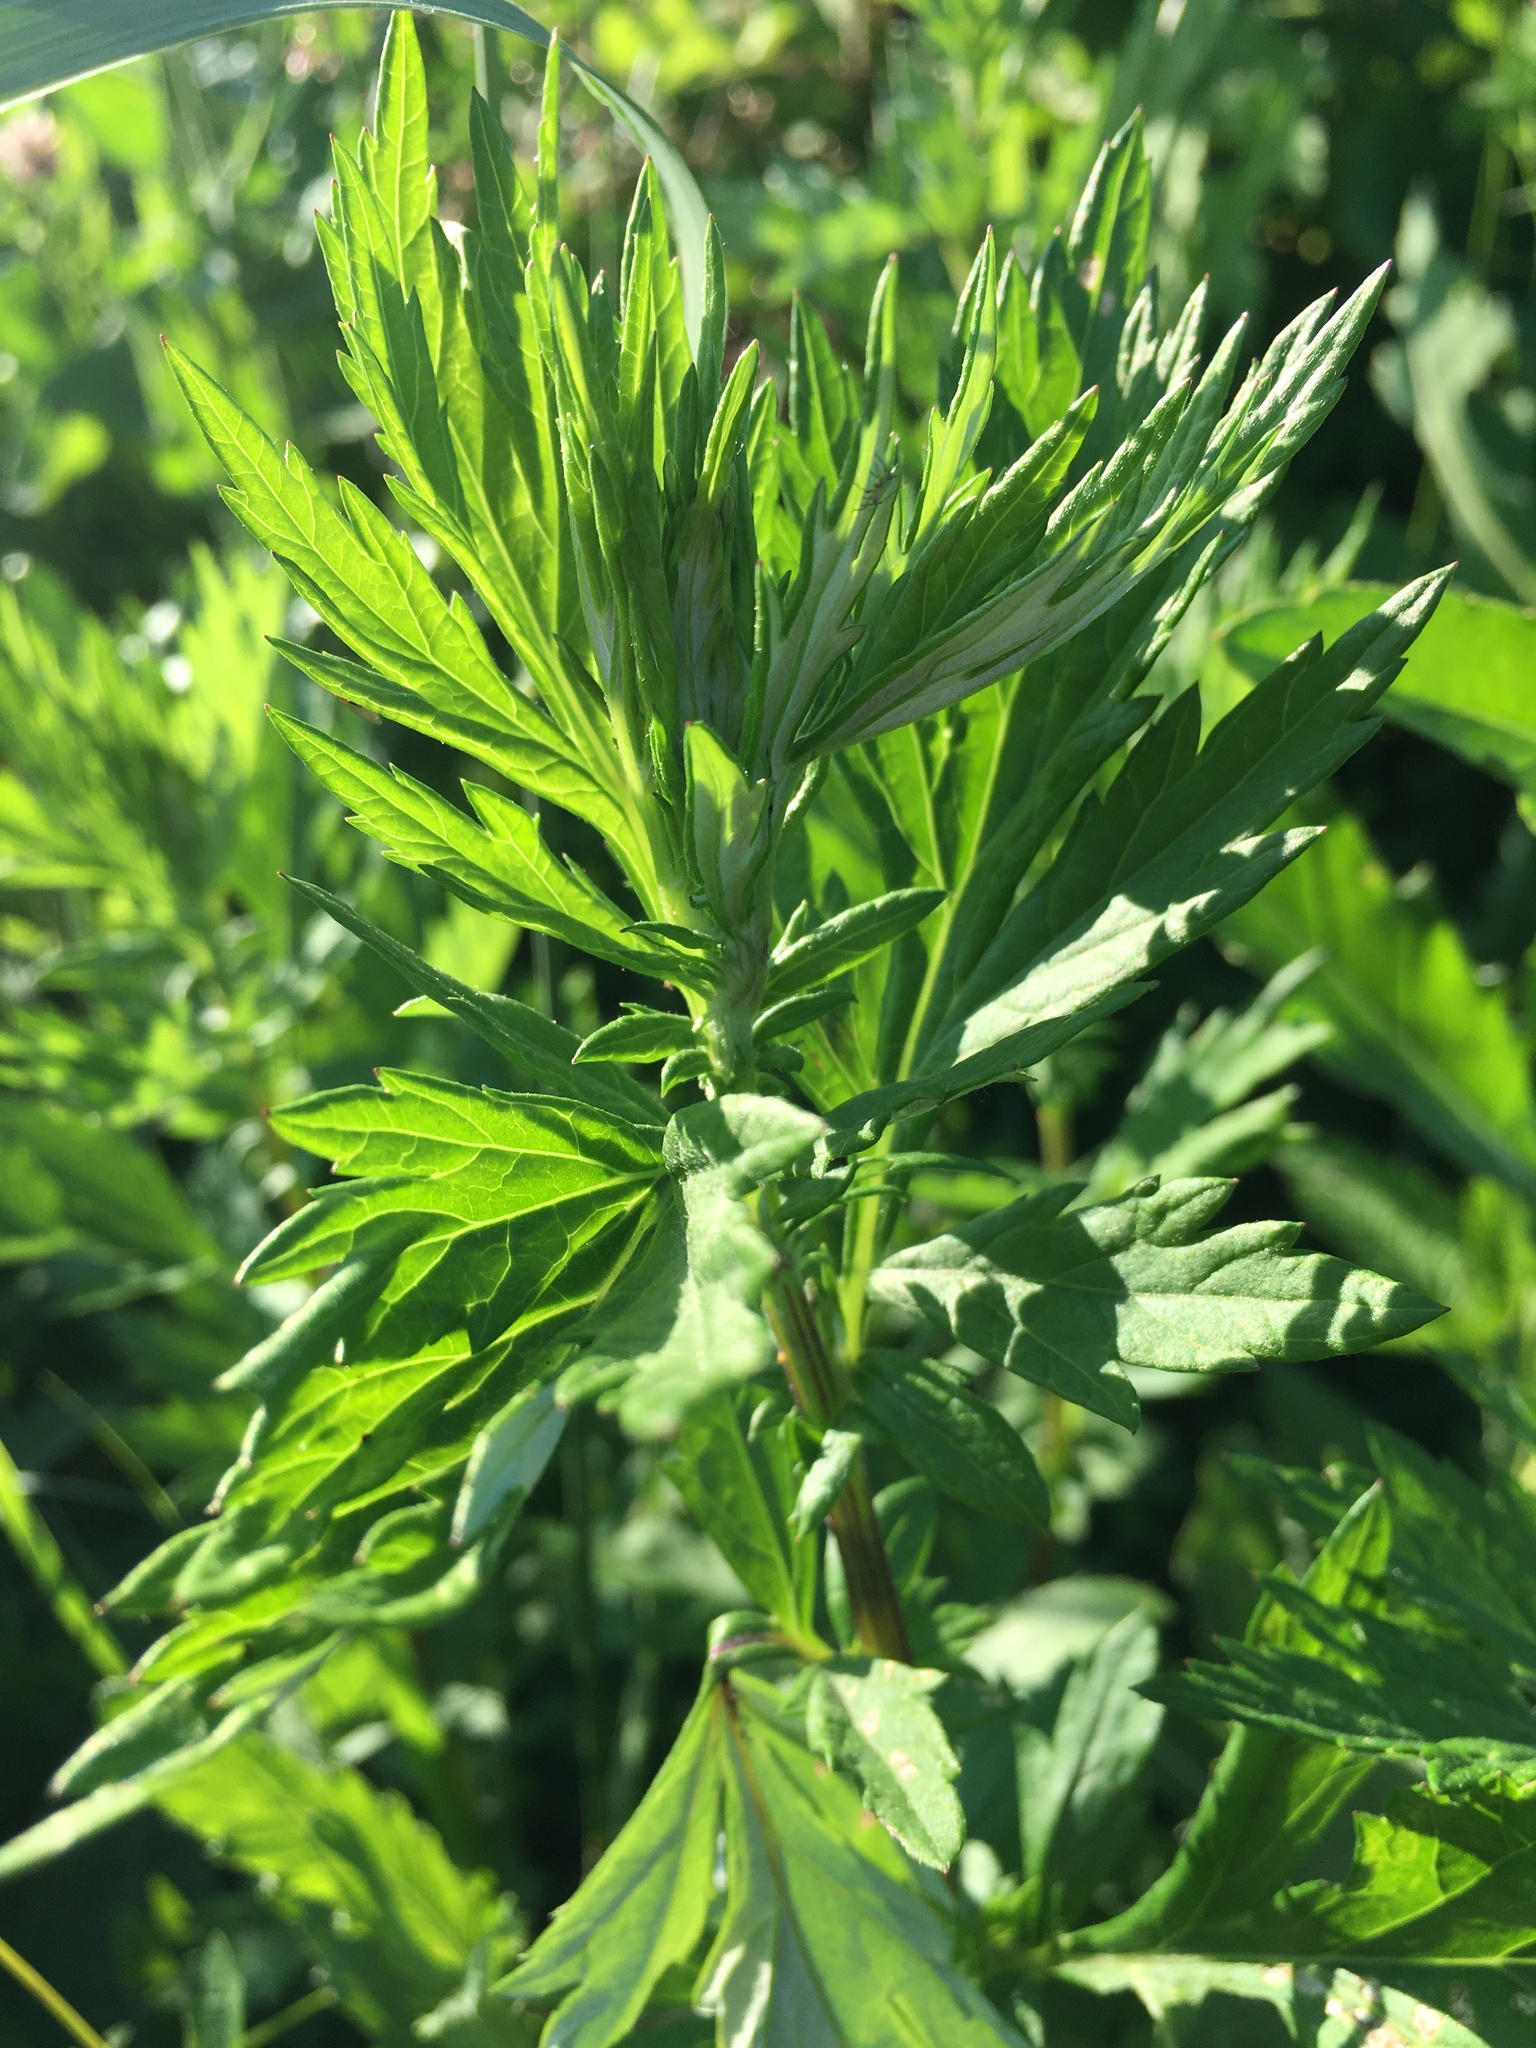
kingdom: Plantae
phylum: Tracheophyta
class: Magnoliopsida
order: Asterales
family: Asteraceae
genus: Artemisia
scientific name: Artemisia vulgaris
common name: Mugwort
